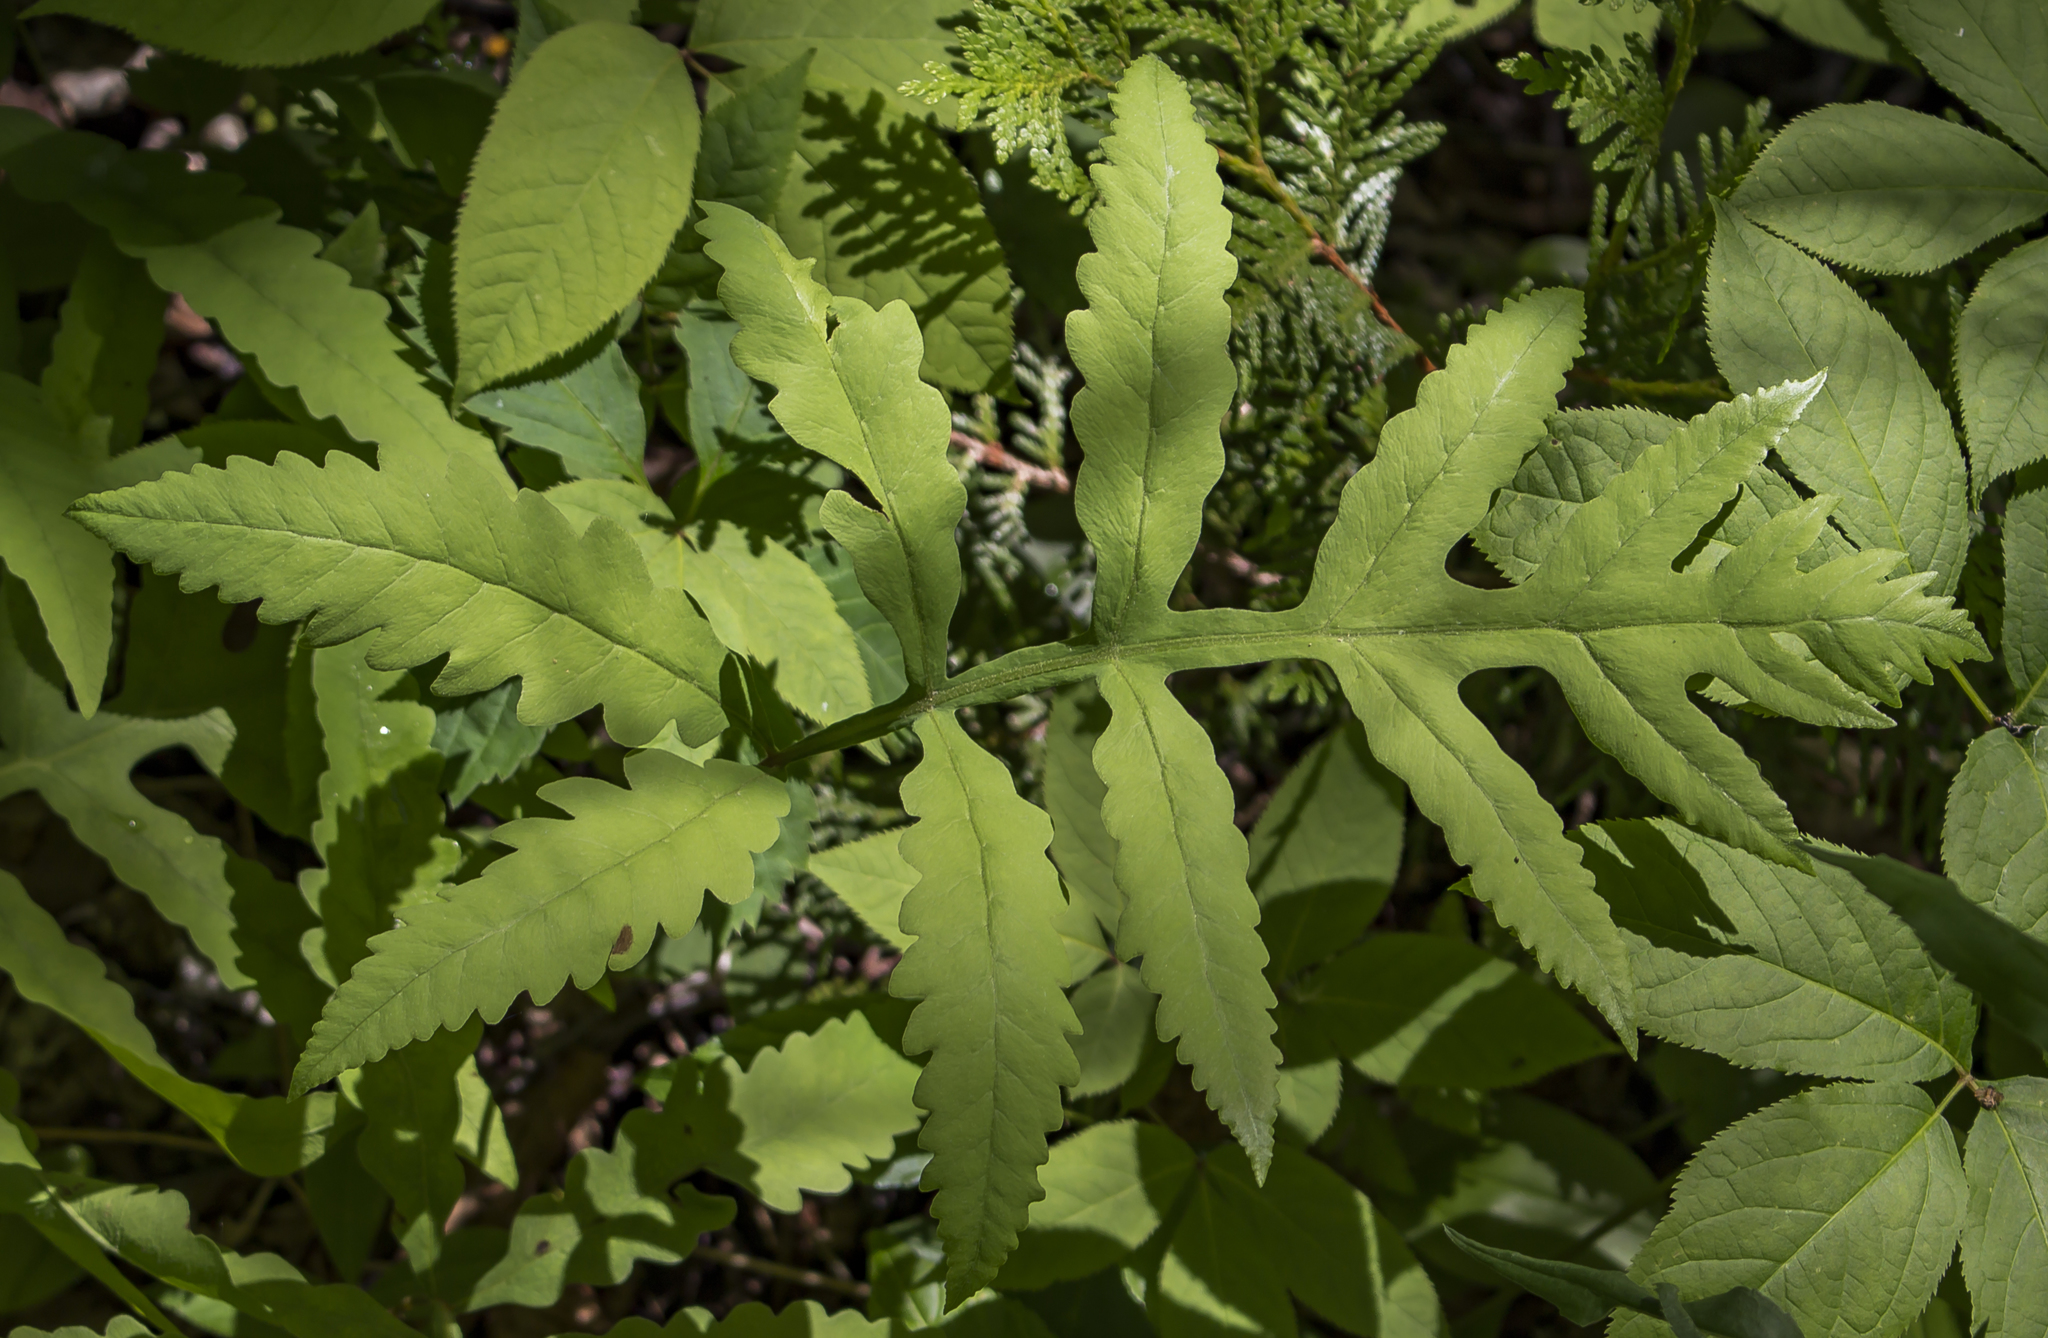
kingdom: Plantae
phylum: Tracheophyta
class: Polypodiopsida
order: Polypodiales
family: Onocleaceae
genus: Onoclea
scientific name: Onoclea sensibilis
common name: Sensitive fern
